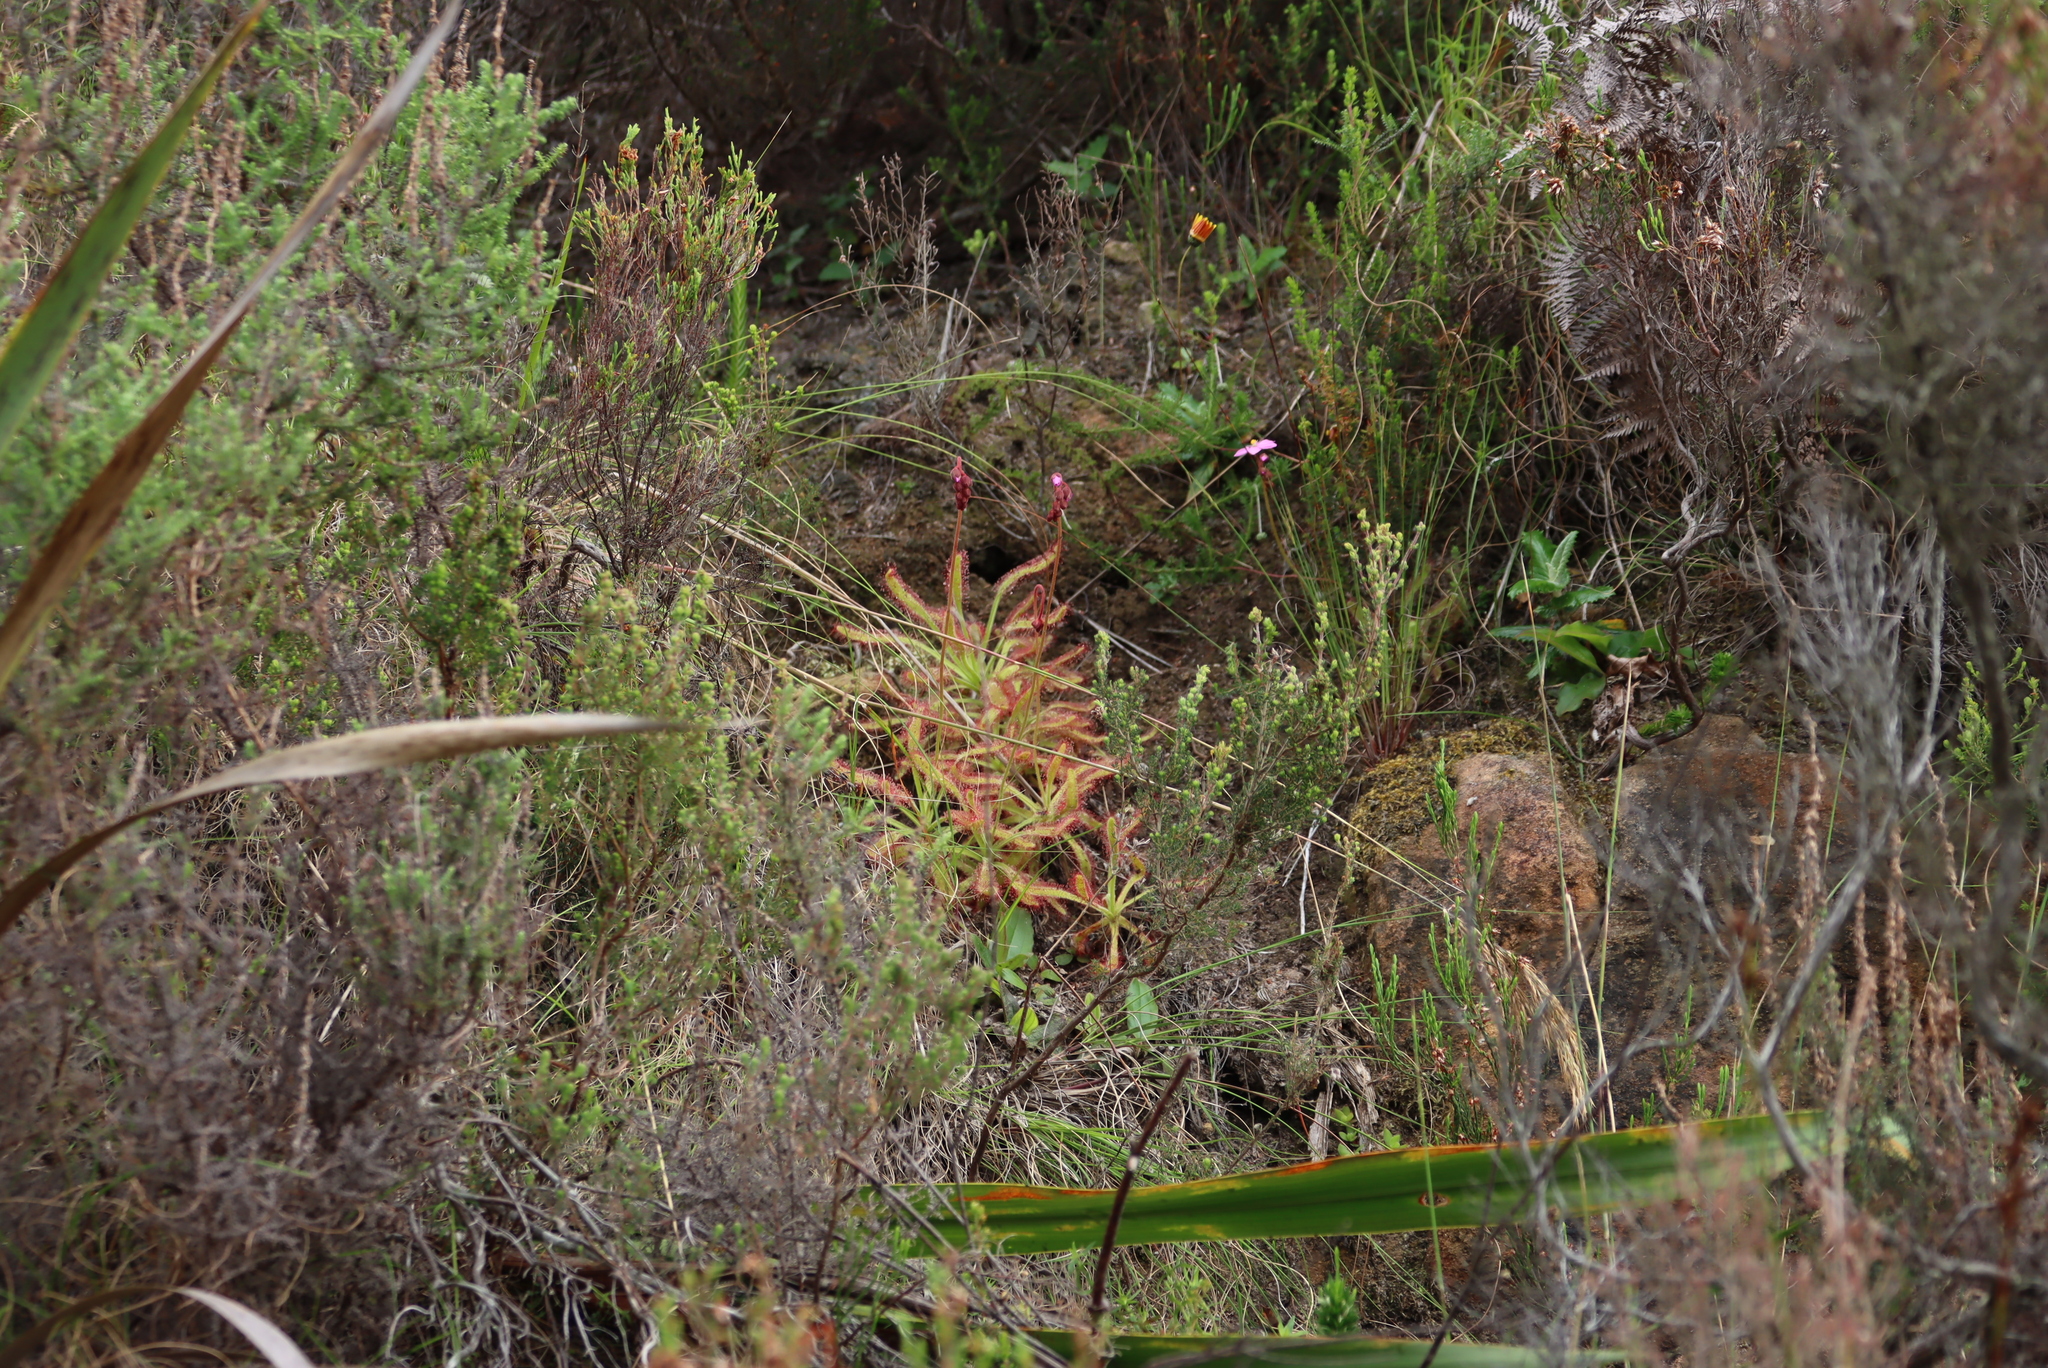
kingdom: Plantae
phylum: Tracheophyta
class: Magnoliopsida
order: Caryophyllales
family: Droseraceae
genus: Drosera
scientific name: Drosera hilaris
